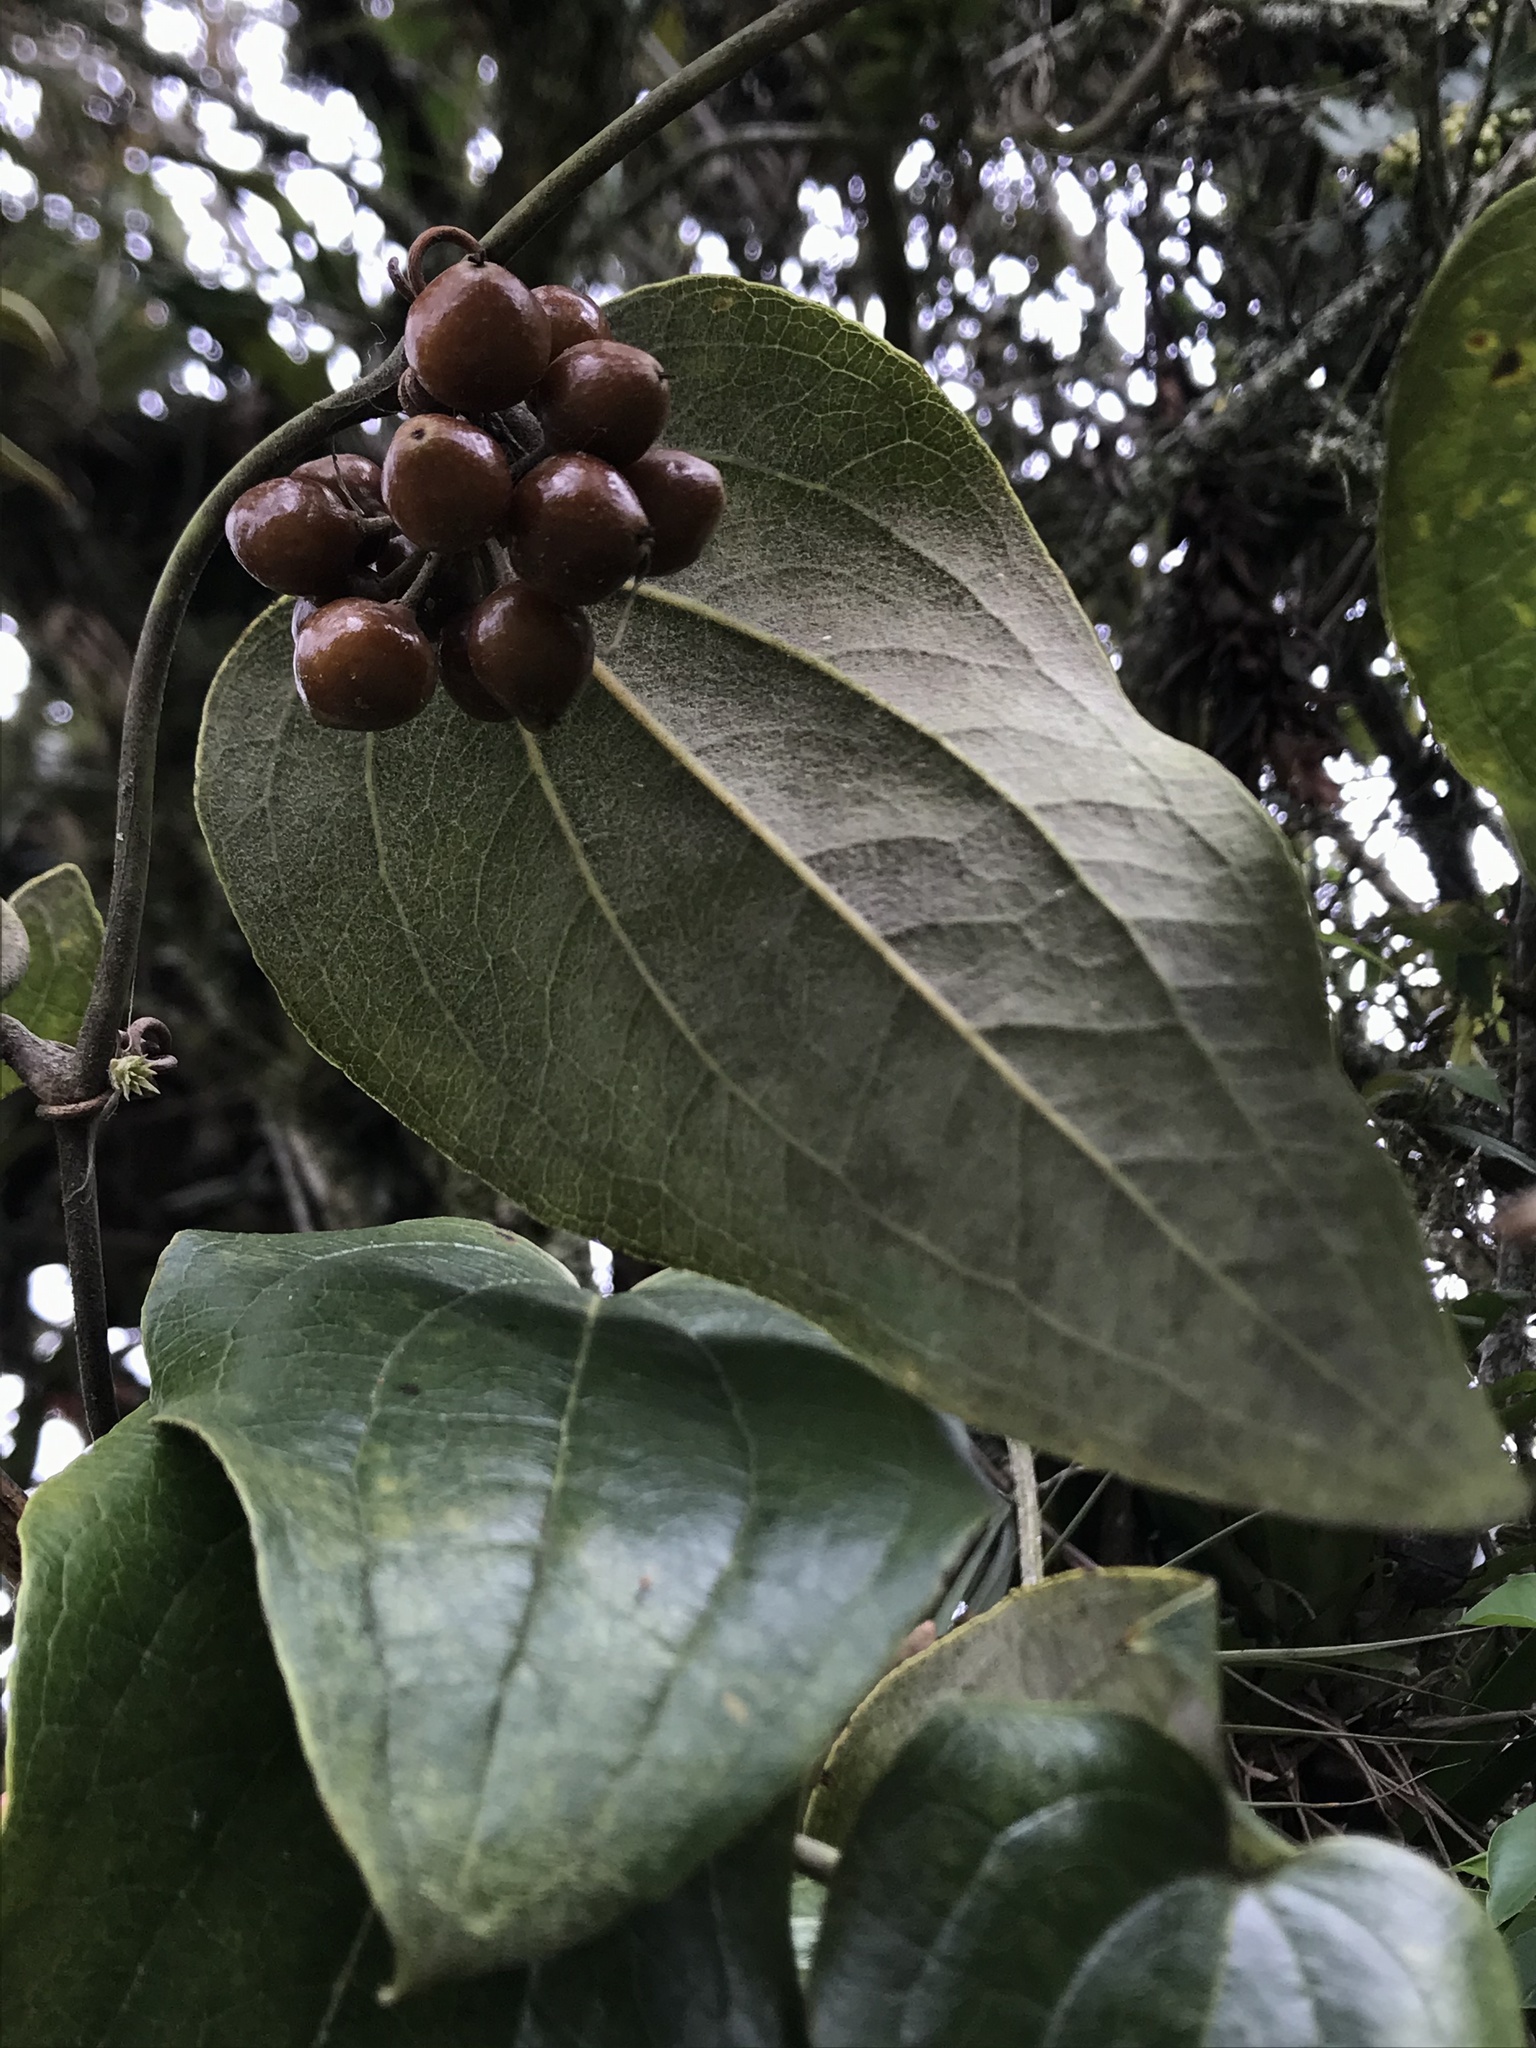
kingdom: Plantae
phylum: Tracheophyta
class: Liliopsida
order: Liliales
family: Smilacaceae
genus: Smilax
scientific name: Smilax tomentosa
